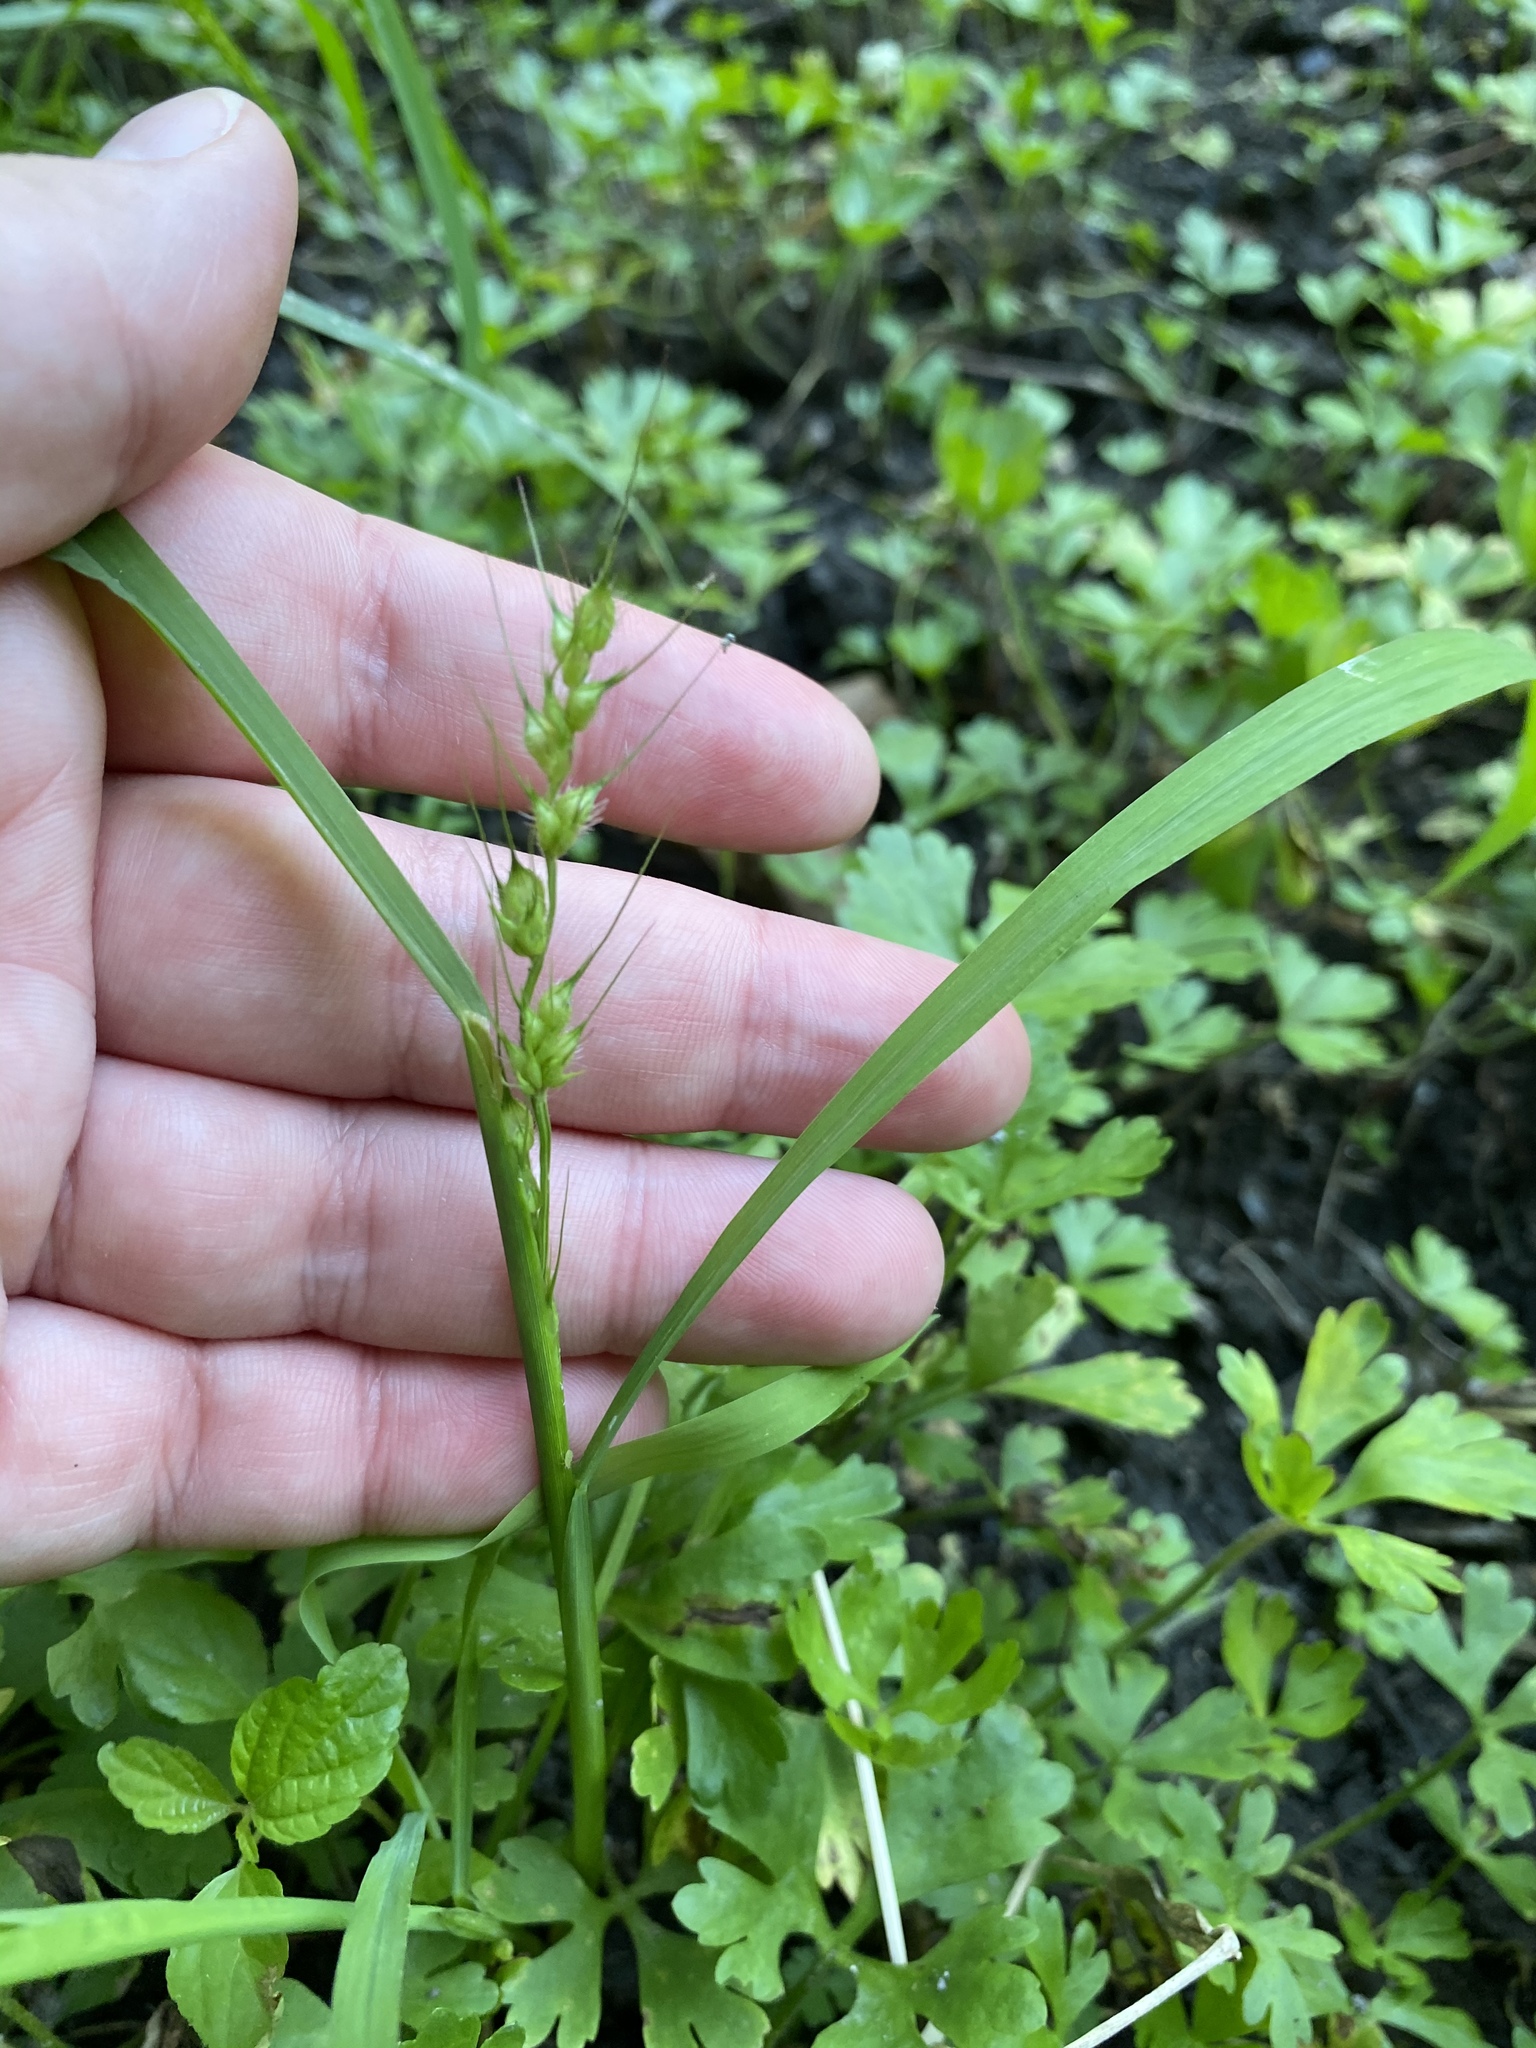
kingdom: Plantae
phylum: Tracheophyta
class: Liliopsida
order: Poales
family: Poaceae
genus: Echinochloa
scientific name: Echinochloa muricata
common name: American barnyard grass
